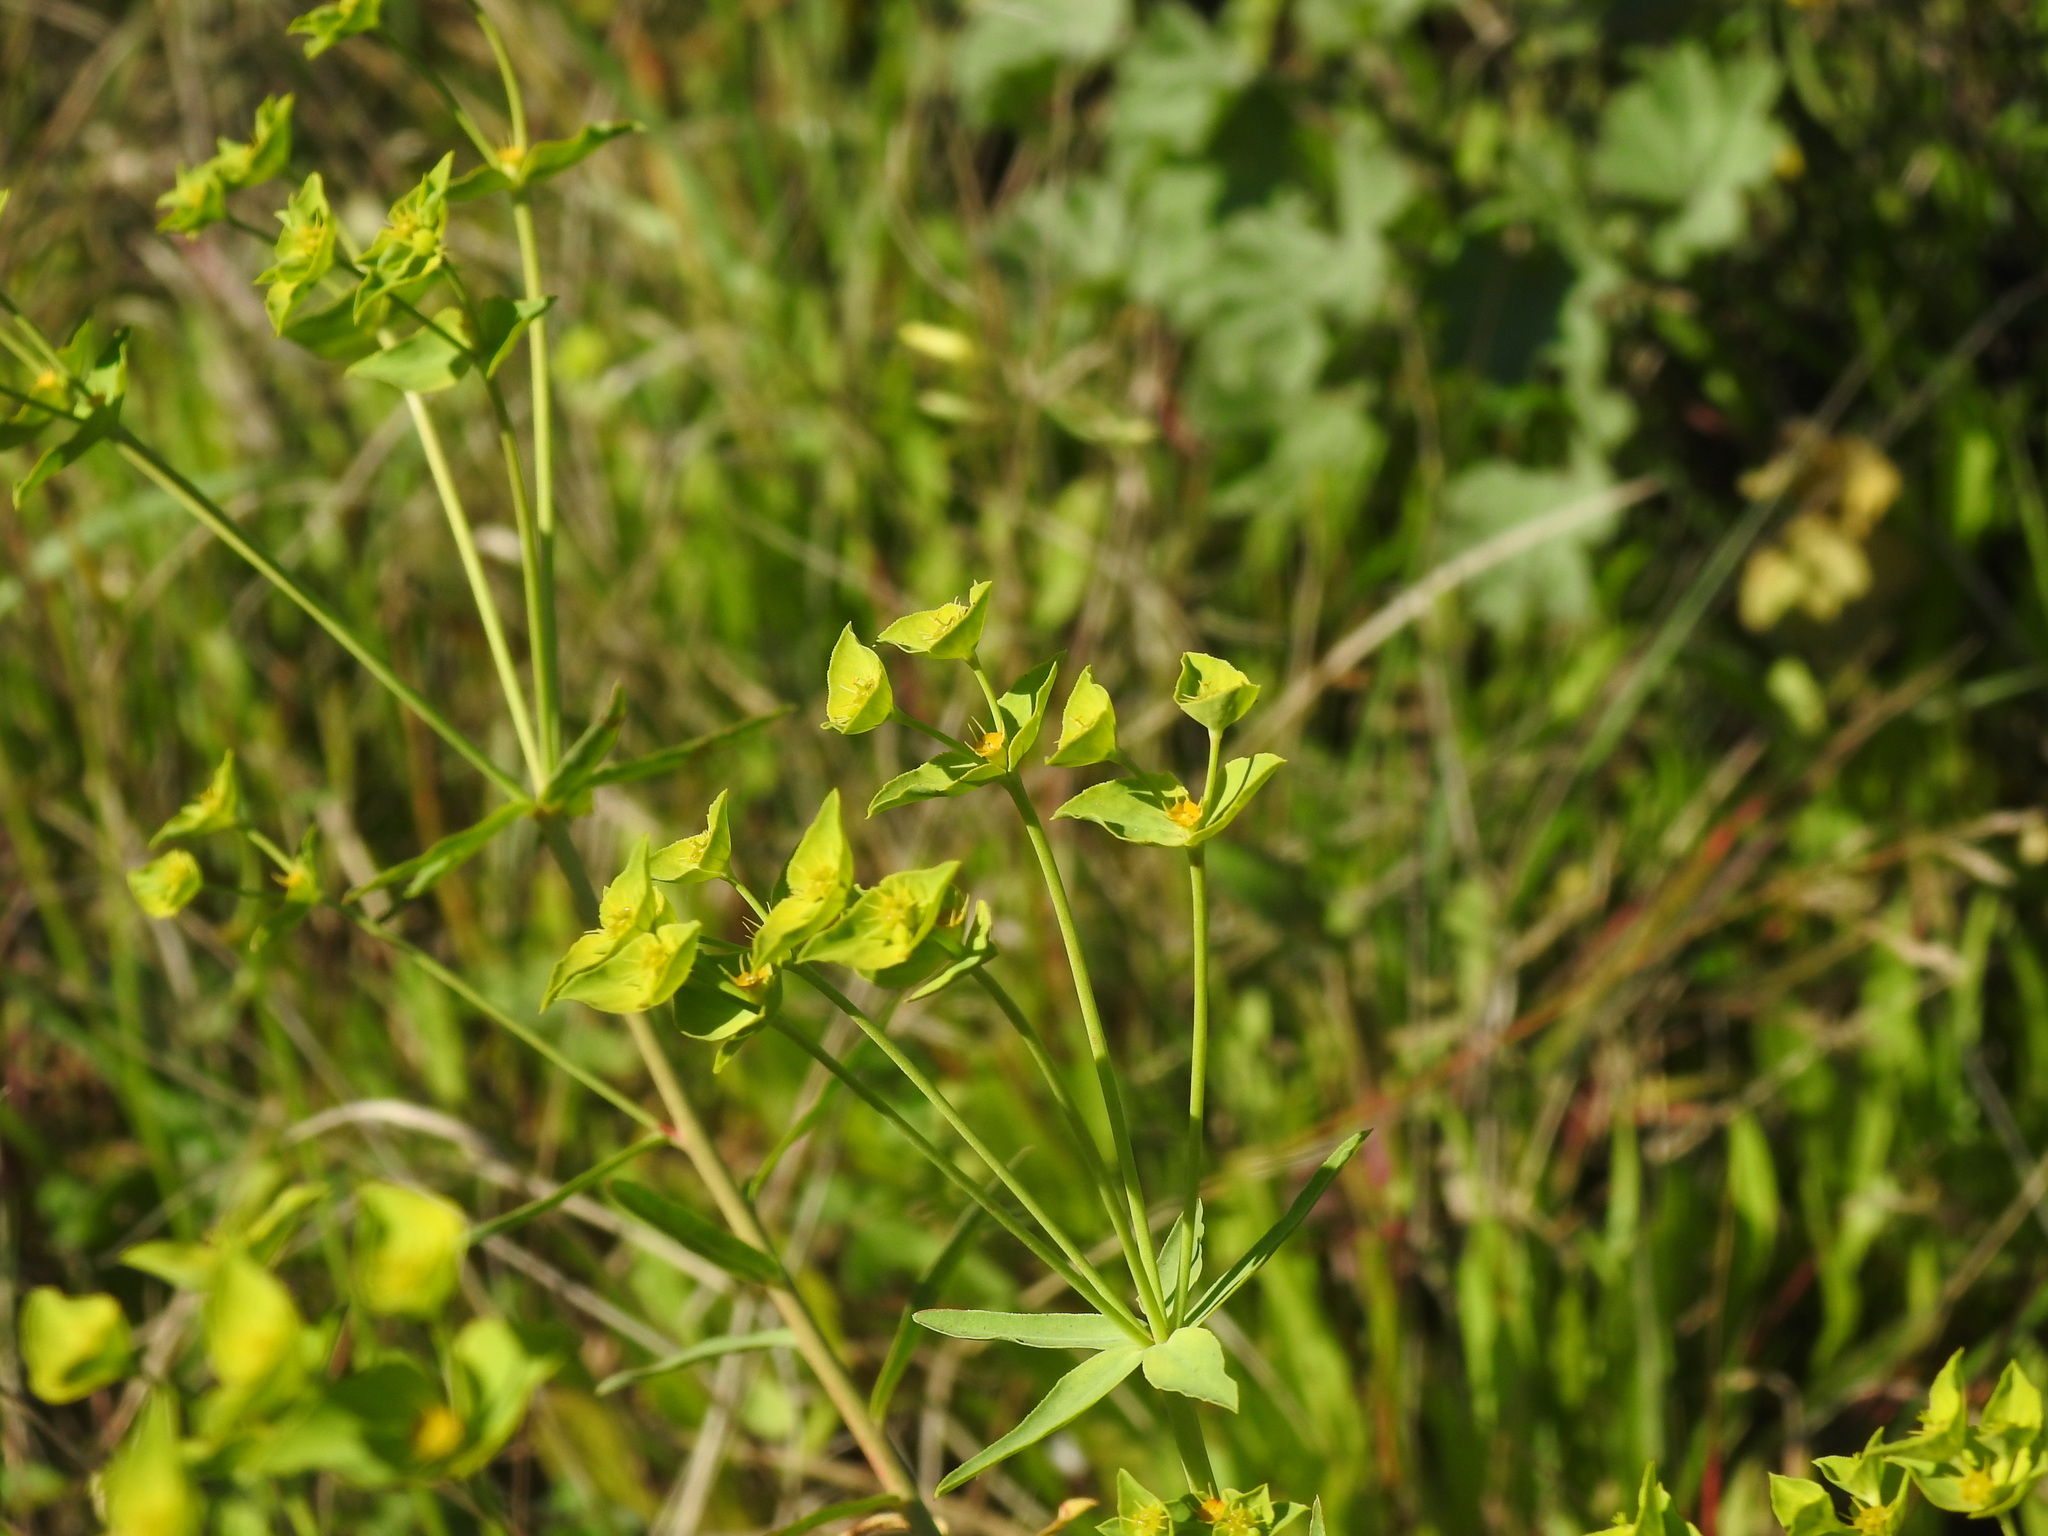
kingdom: Plantae
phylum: Tracheophyta
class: Magnoliopsida
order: Malpighiales
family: Euphorbiaceae
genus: Euphorbia
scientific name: Euphorbia terracina
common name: Geraldton carnation weed
